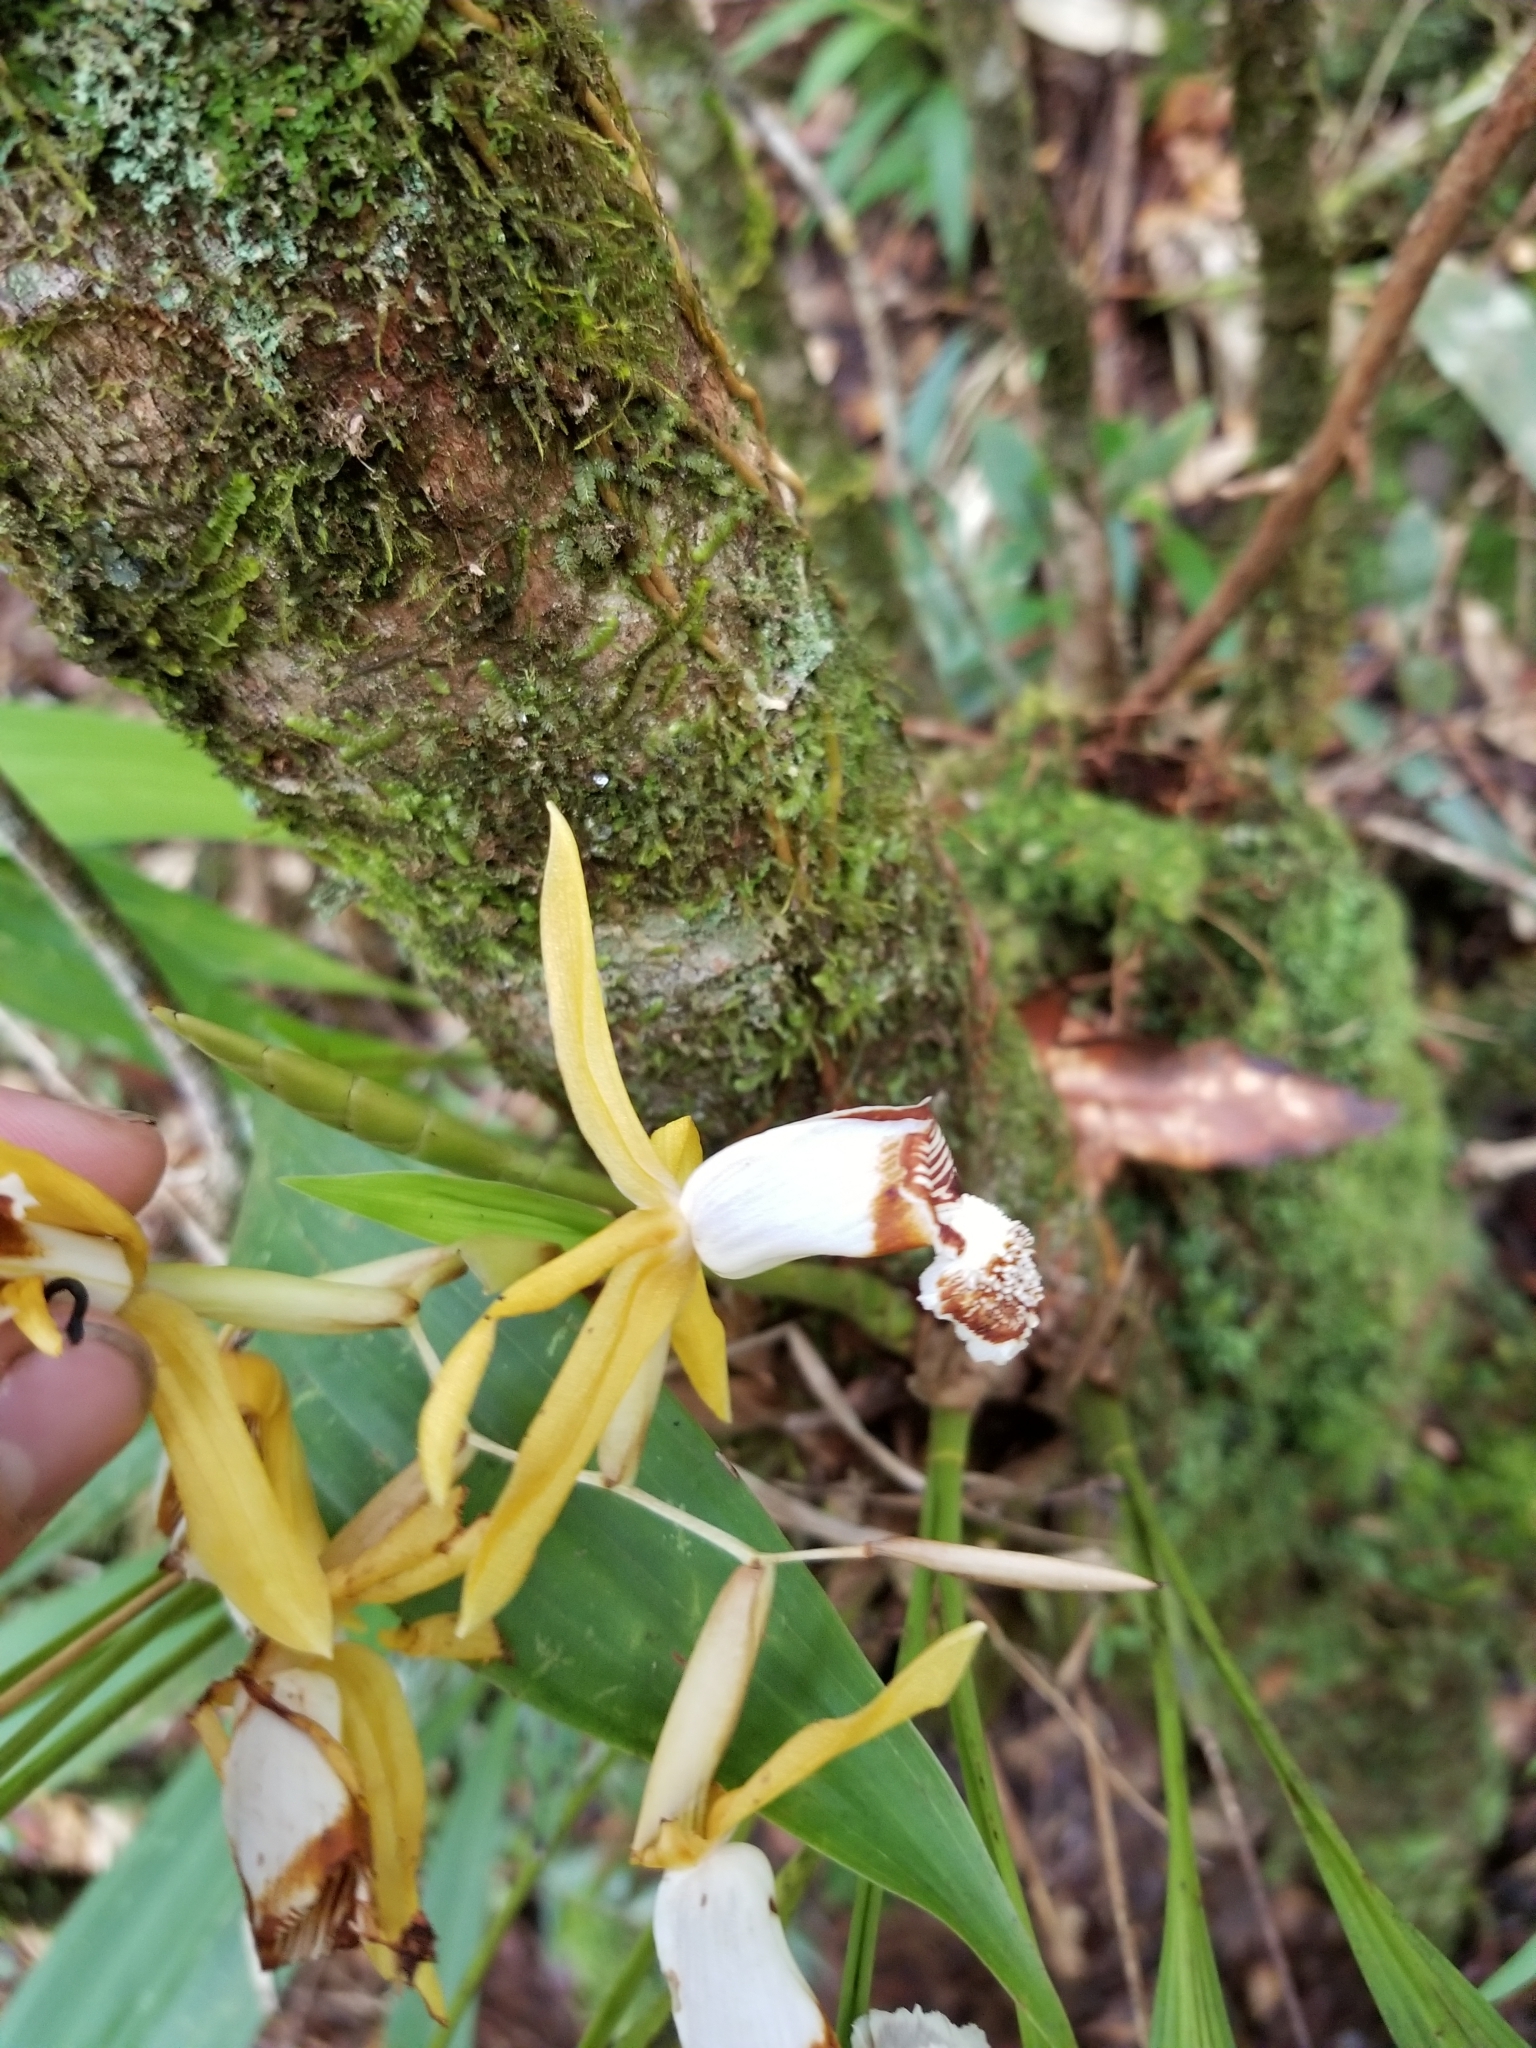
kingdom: Plantae
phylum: Tracheophyta
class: Liliopsida
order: Asparagales
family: Orchidaceae
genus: Coelogyne
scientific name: Coelogyne radioferens
